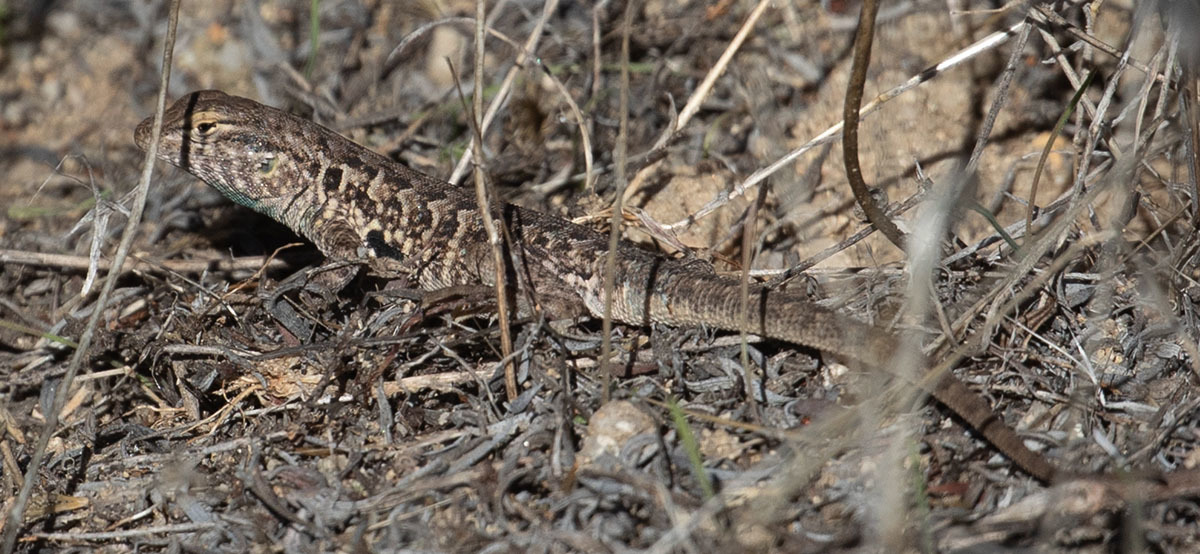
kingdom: Animalia
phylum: Chordata
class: Squamata
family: Phrynosomatidae
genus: Uta
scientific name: Uta stansburiana
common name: Side-blotched lizard
